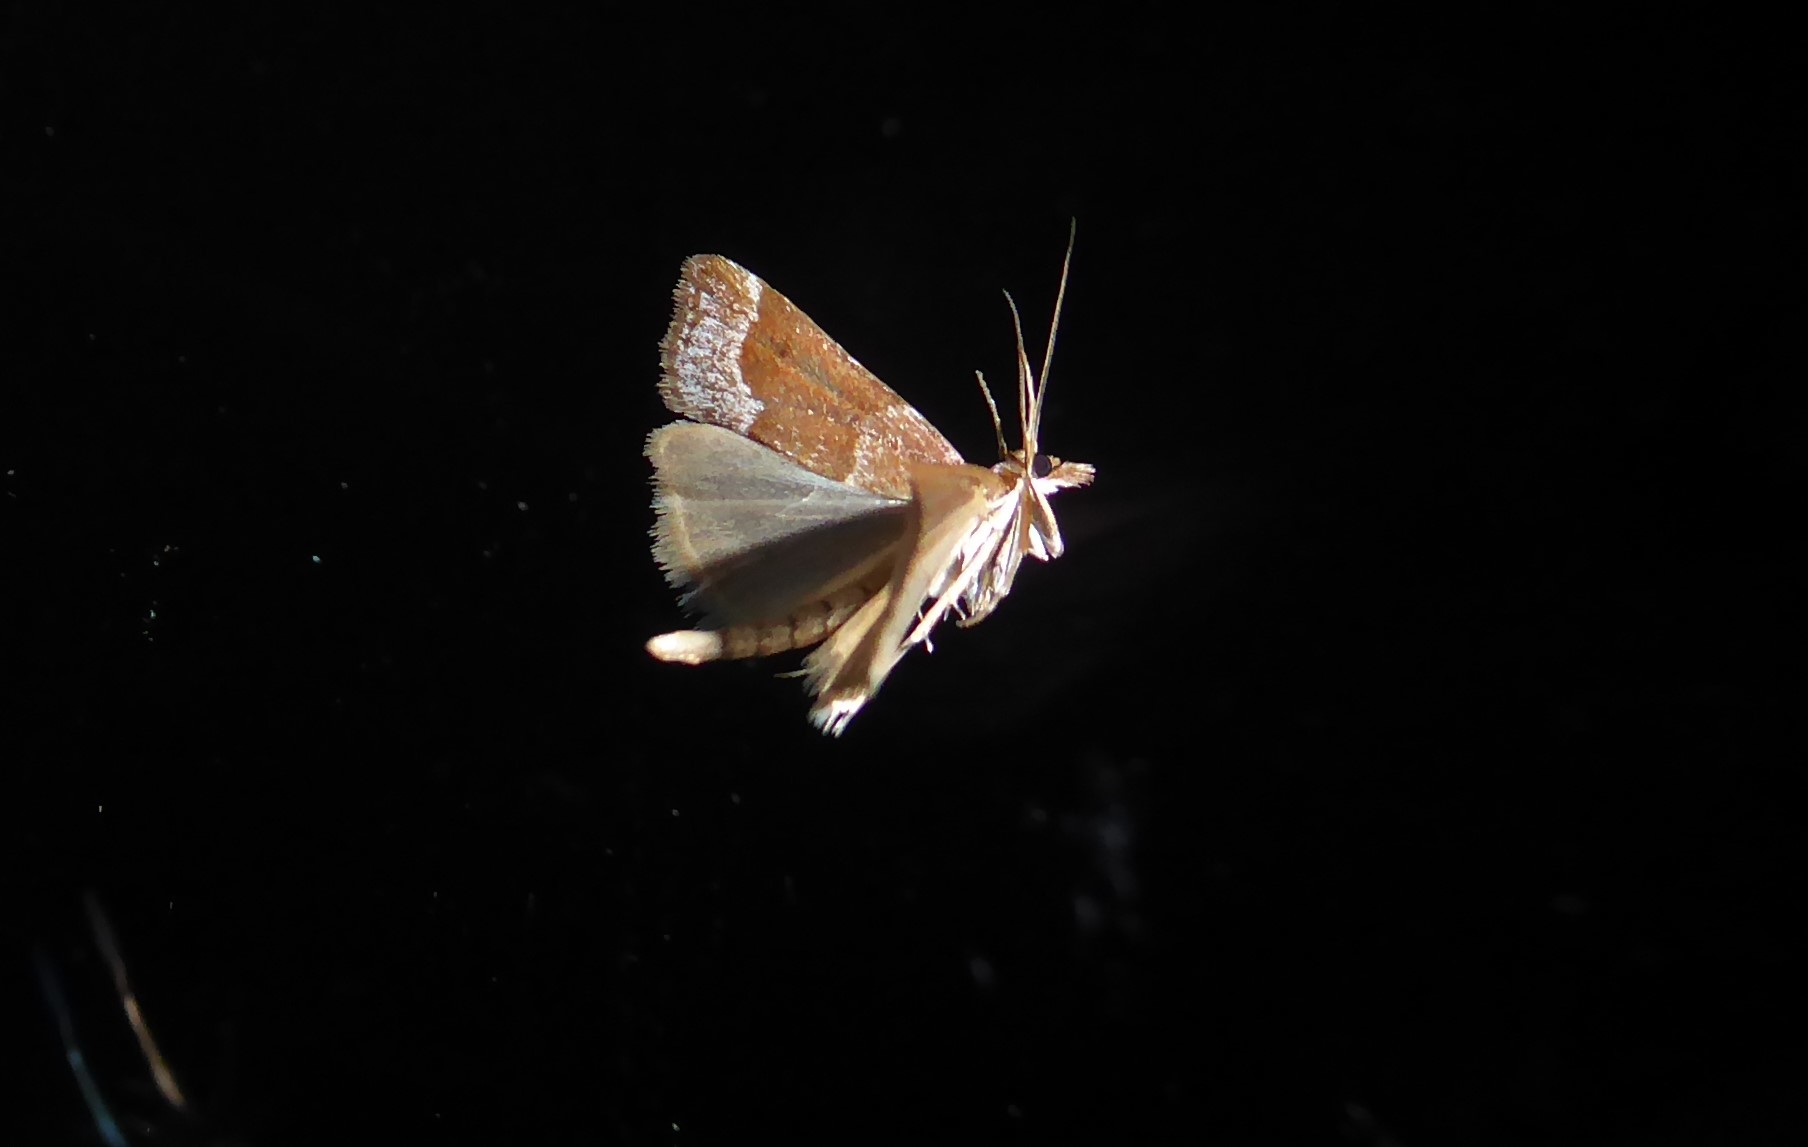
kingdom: Animalia
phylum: Arthropoda
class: Insecta
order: Lepidoptera
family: Crambidae
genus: Eudonia
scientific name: Eudonia feredayi
